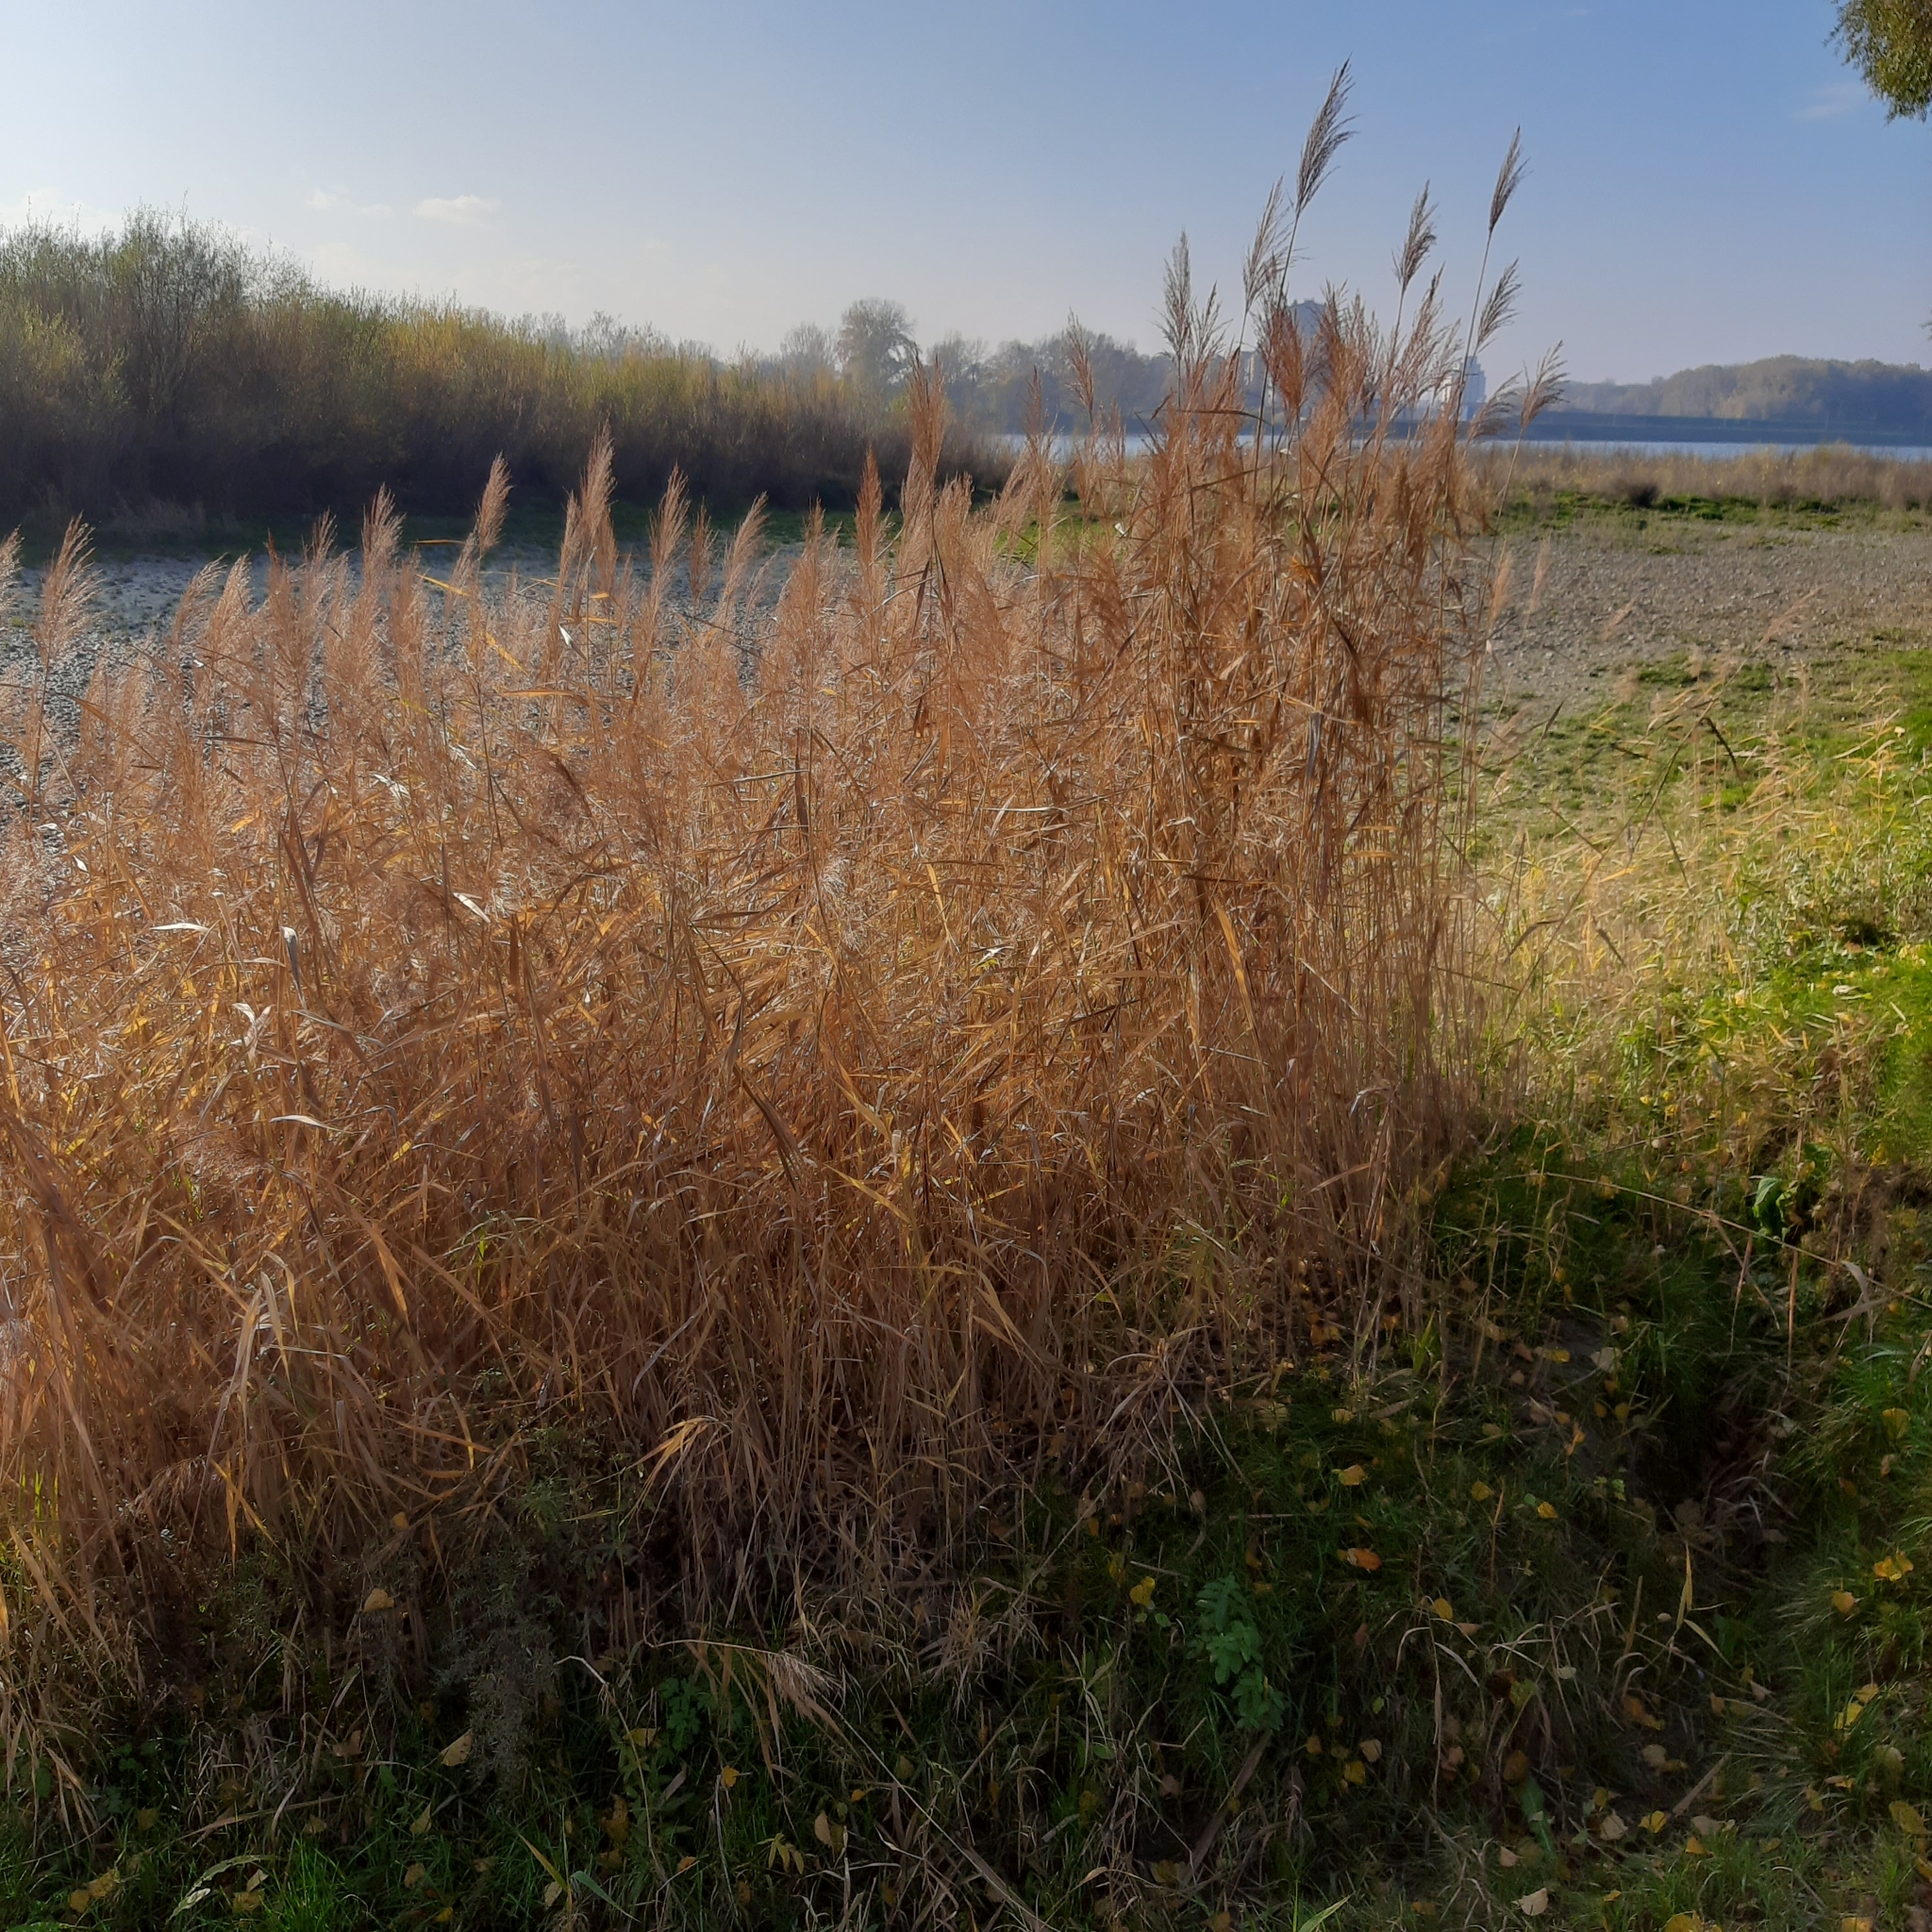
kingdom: Plantae
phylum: Tracheophyta
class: Liliopsida
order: Poales
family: Poaceae
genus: Phragmites
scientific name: Phragmites australis
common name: Common reed
